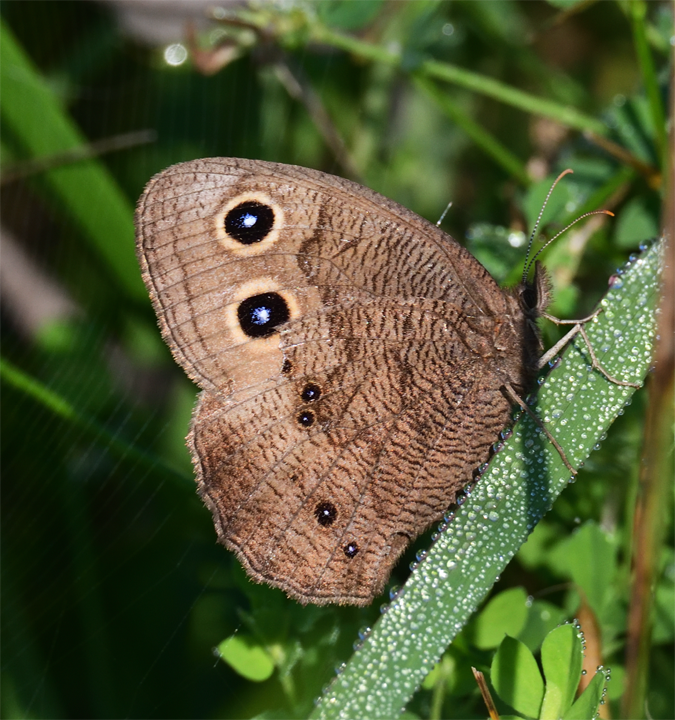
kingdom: Animalia
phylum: Arthropoda
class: Insecta
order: Lepidoptera
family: Nymphalidae
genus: Cercyonis
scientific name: Cercyonis pegala
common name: Common wood-nymph
